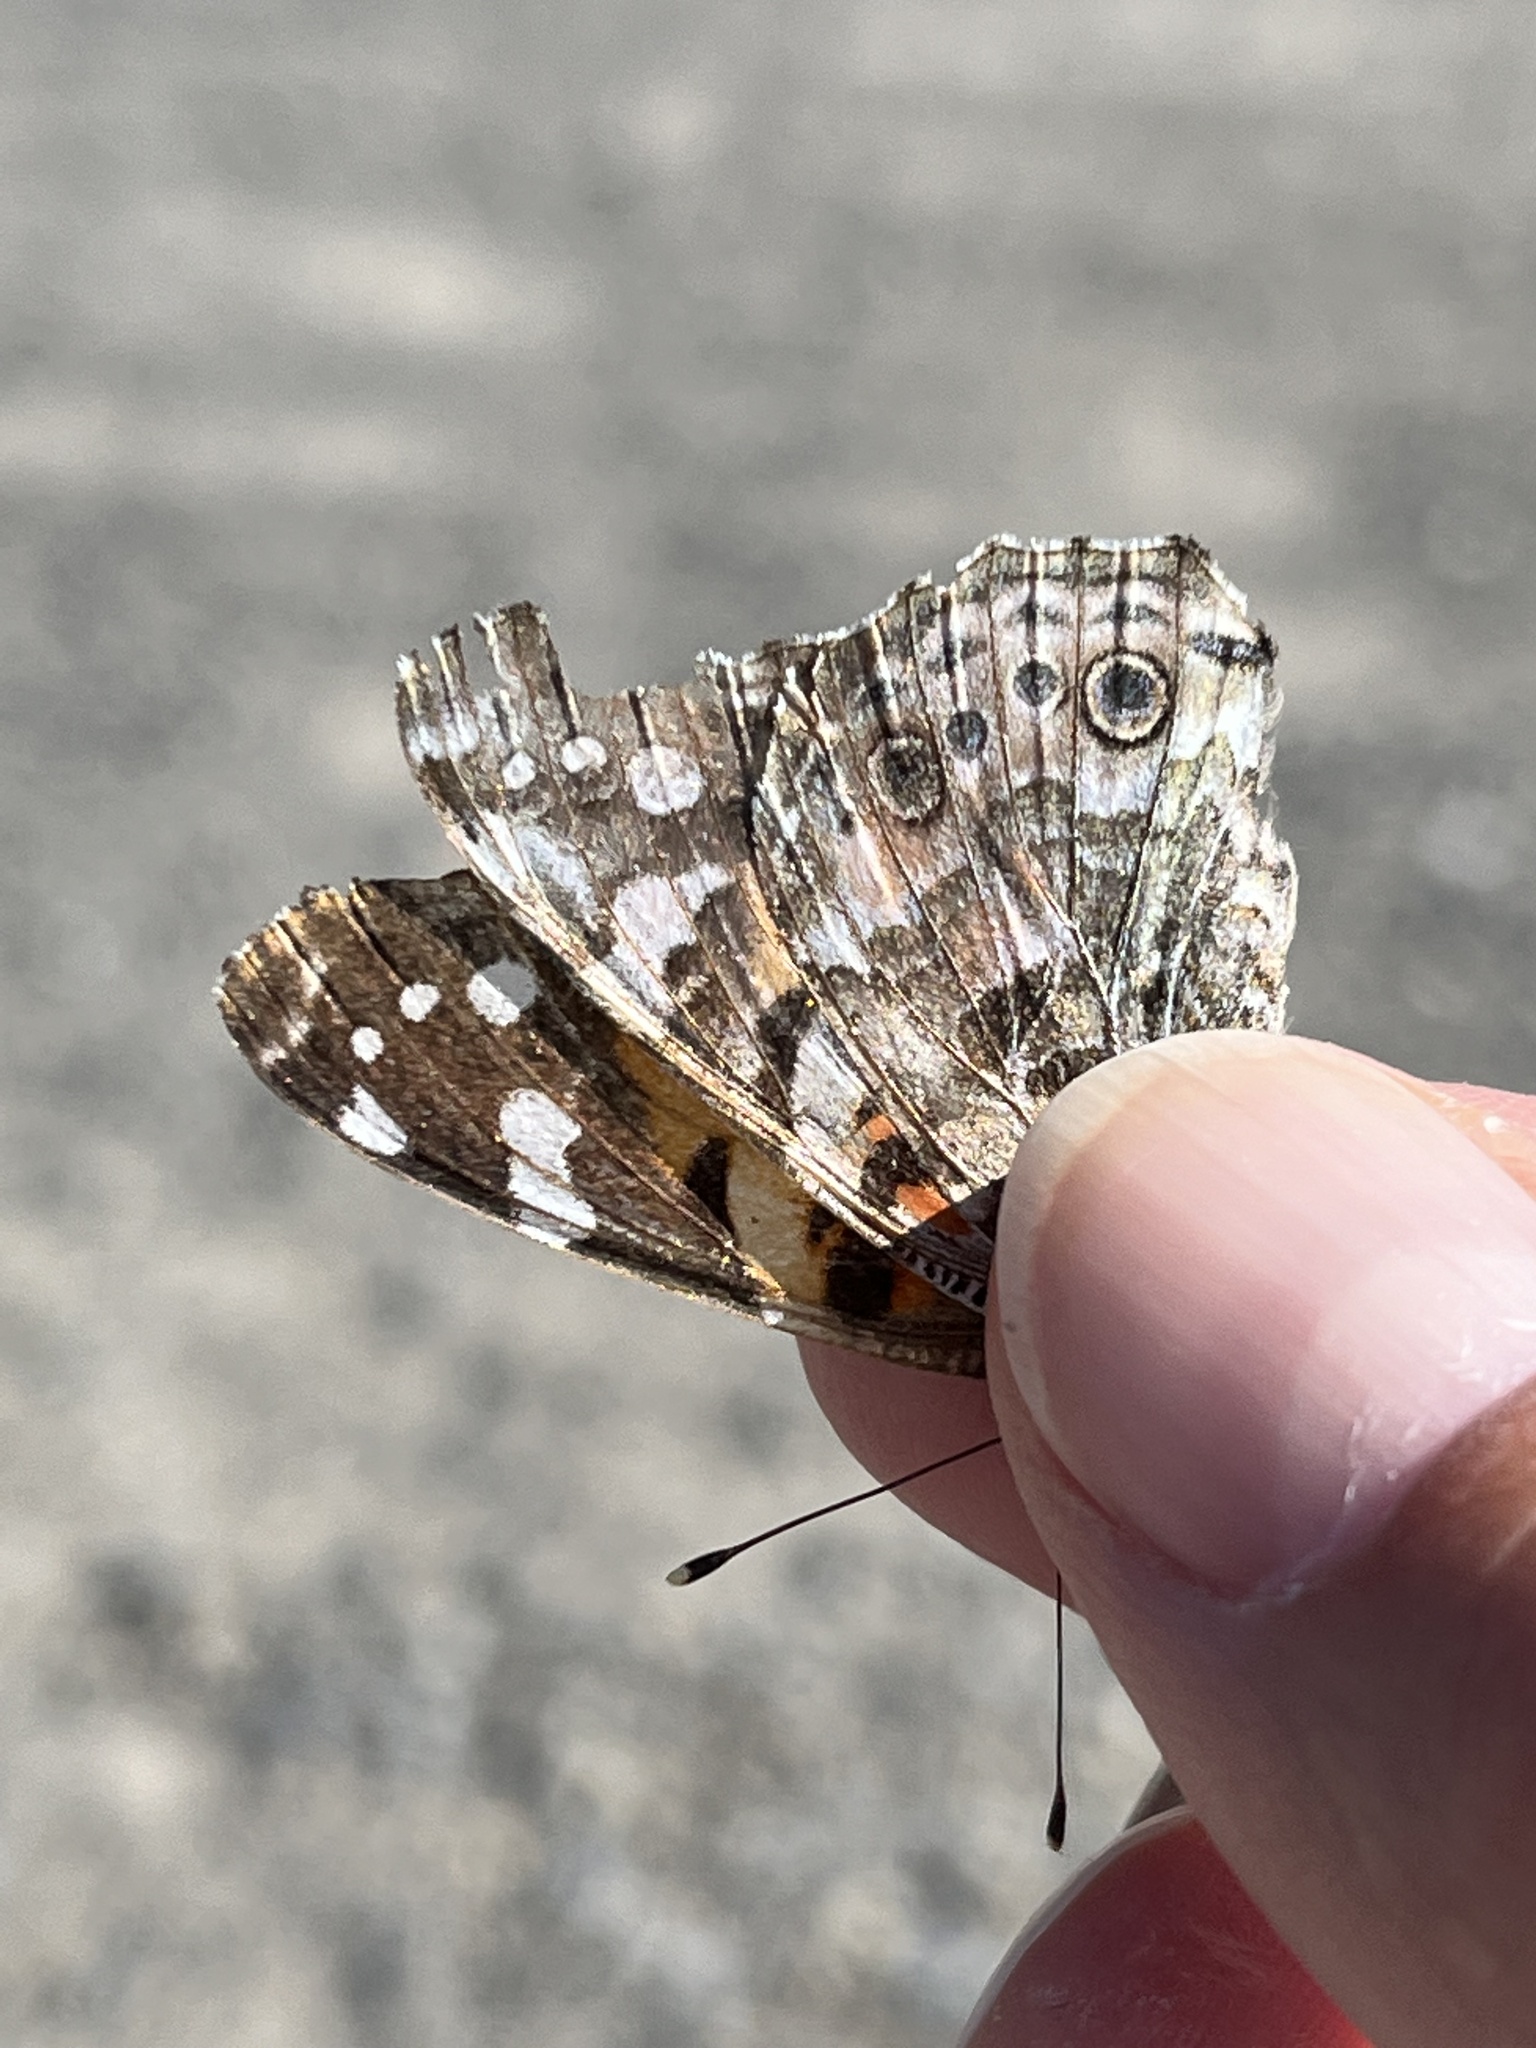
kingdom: Animalia
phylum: Arthropoda
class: Insecta
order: Lepidoptera
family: Nymphalidae
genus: Vanessa
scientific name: Vanessa cardui
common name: Painted lady
